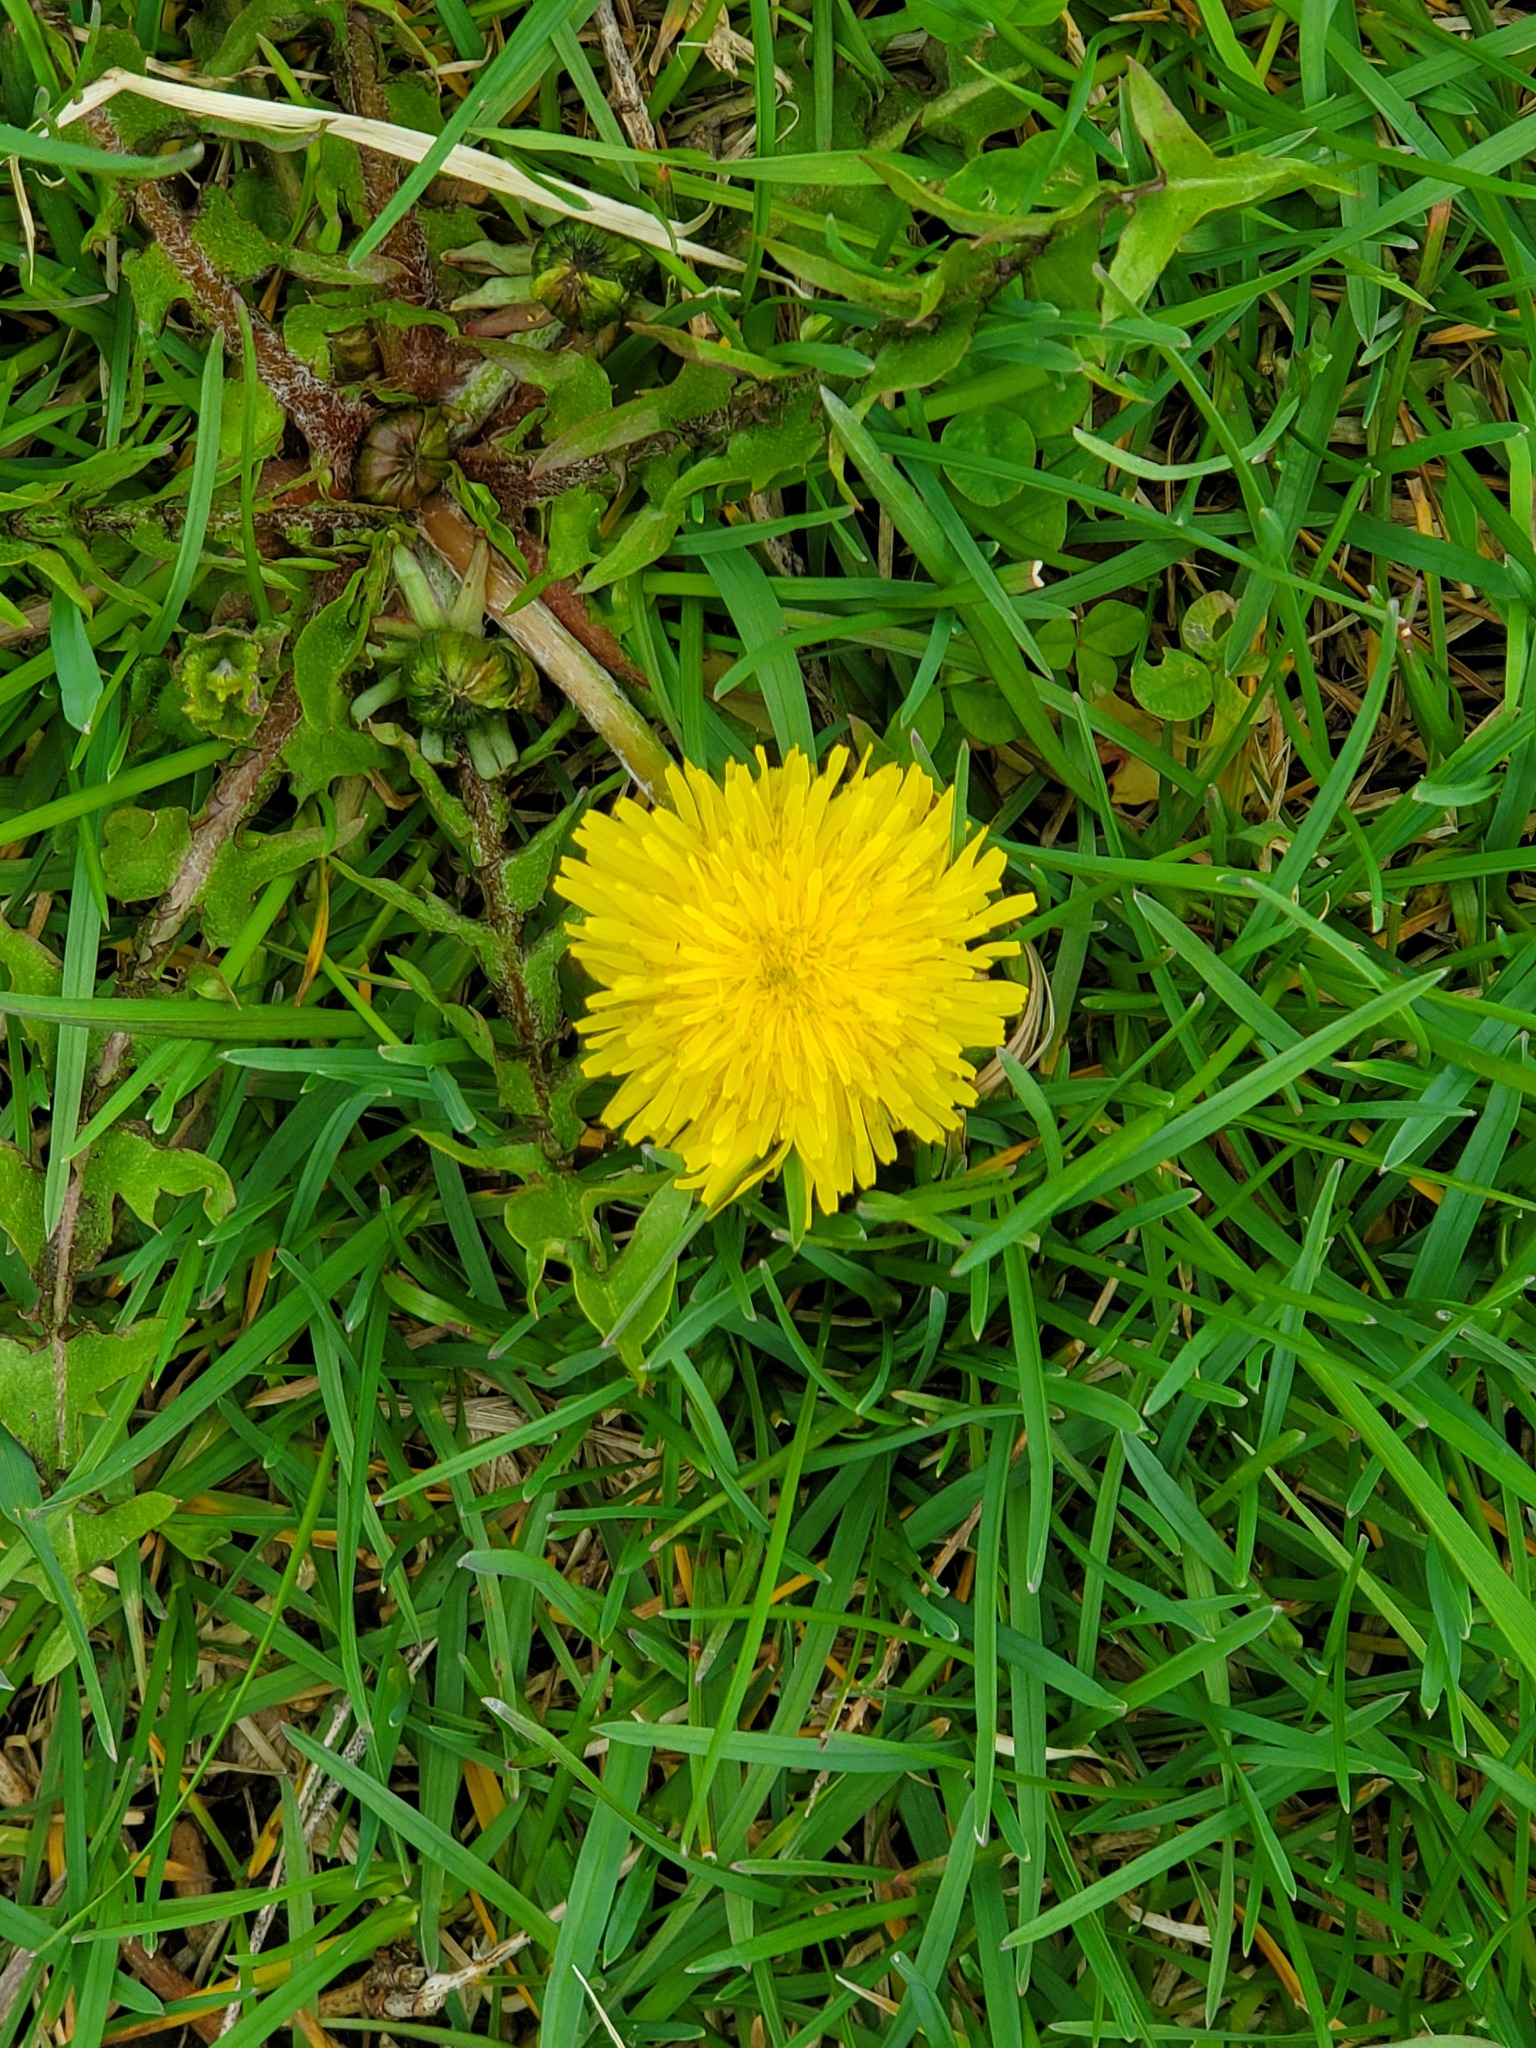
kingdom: Plantae
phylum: Tracheophyta
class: Magnoliopsida
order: Asterales
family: Asteraceae
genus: Taraxacum
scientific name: Taraxacum officinale
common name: Common dandelion
